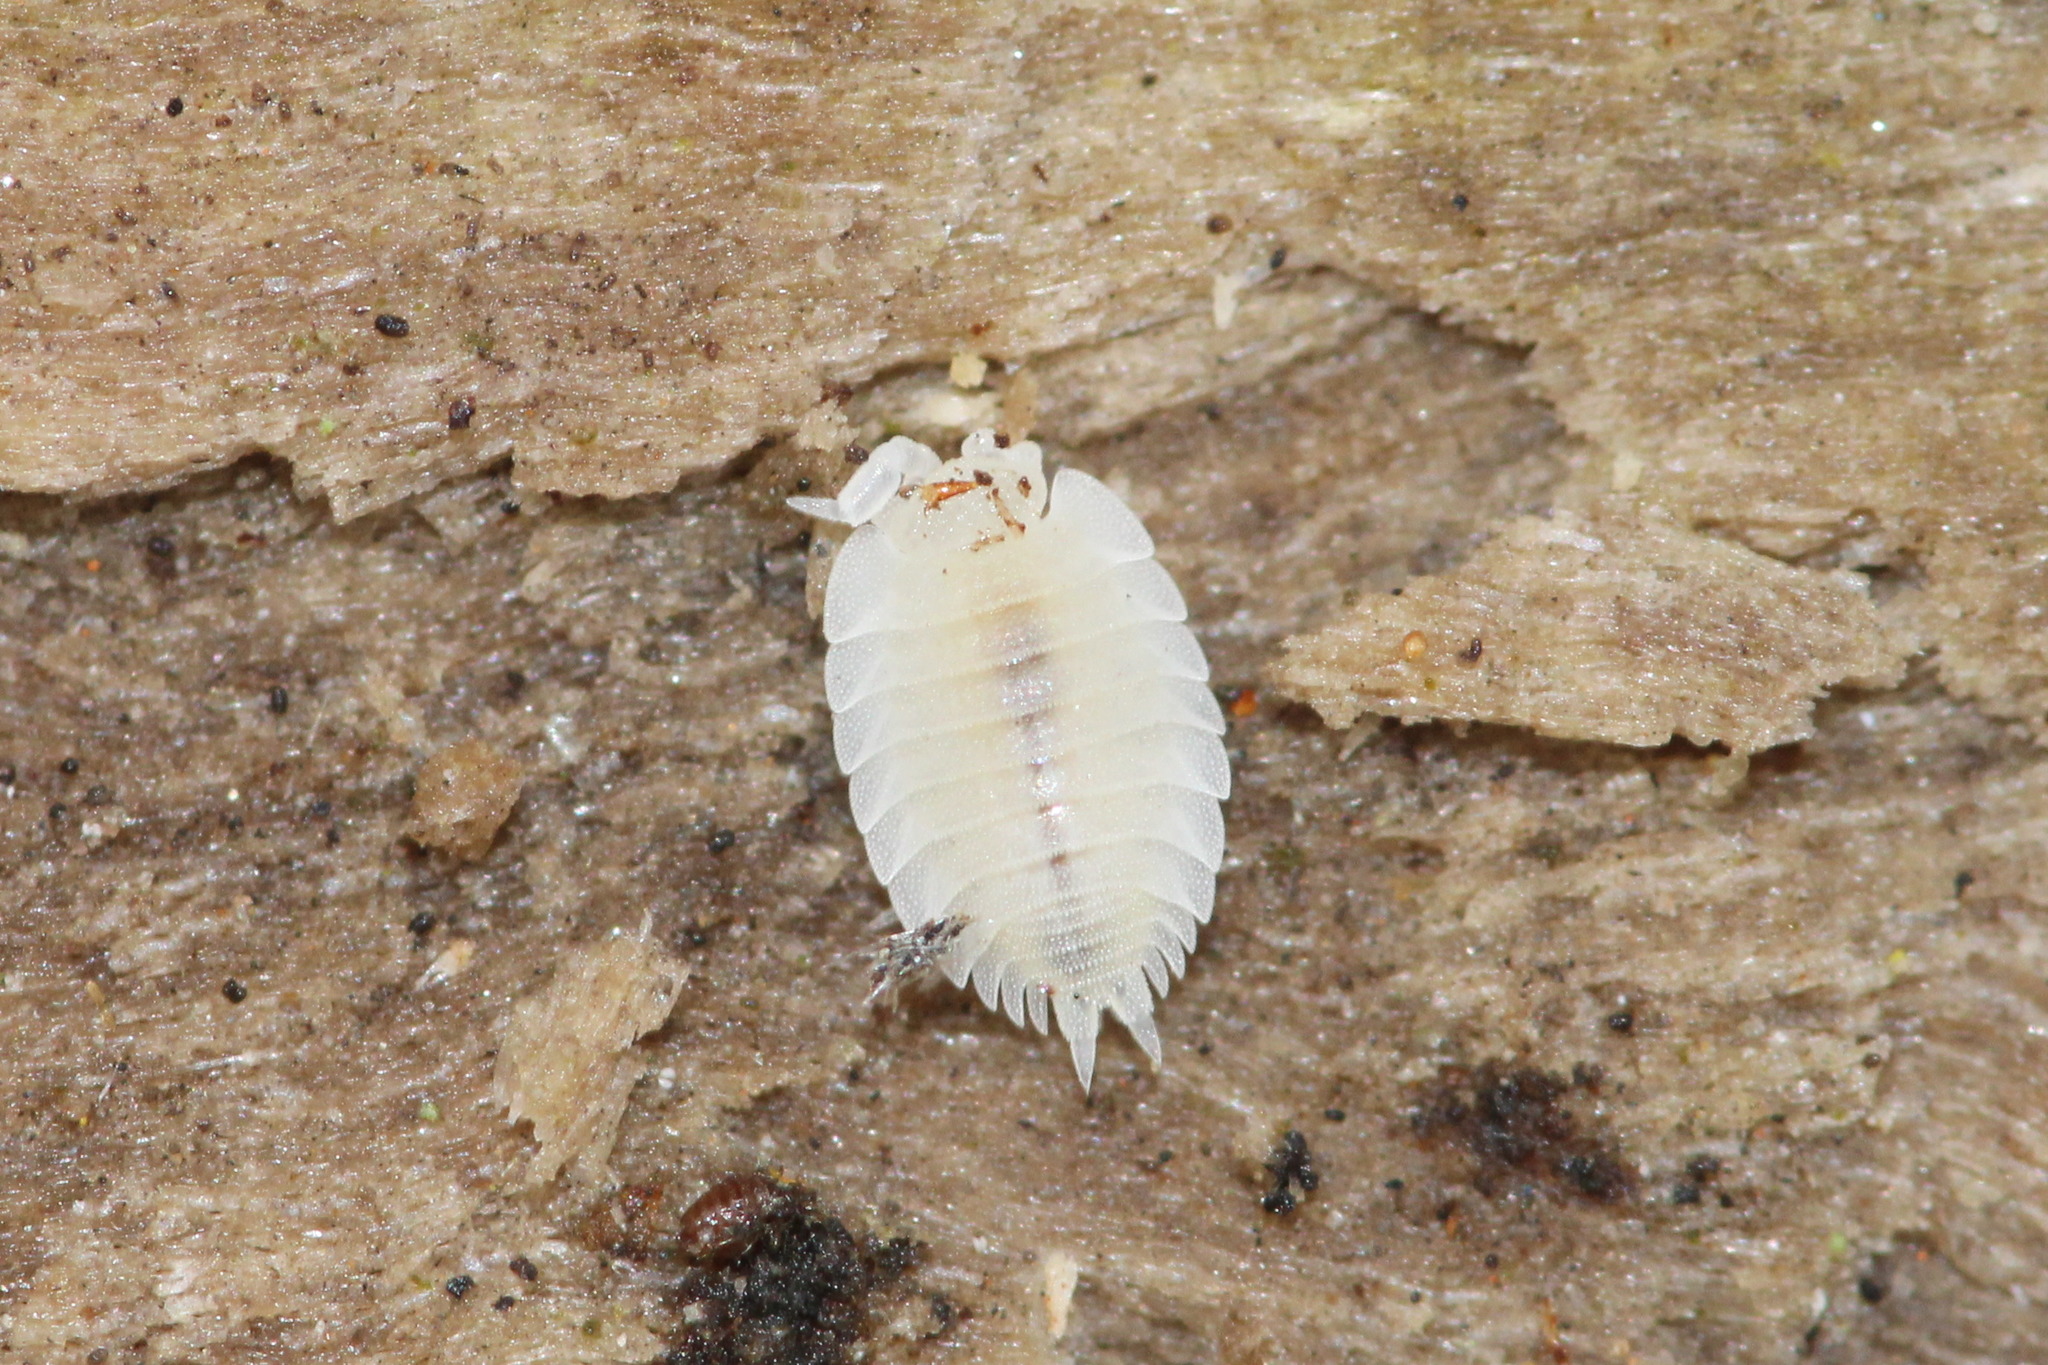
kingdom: Animalia
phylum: Arthropoda
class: Malacostraca
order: Isopoda
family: Platyarthridae
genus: Platyarthrus
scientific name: Platyarthrus hoffmannseggii
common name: Ant woodlouse
